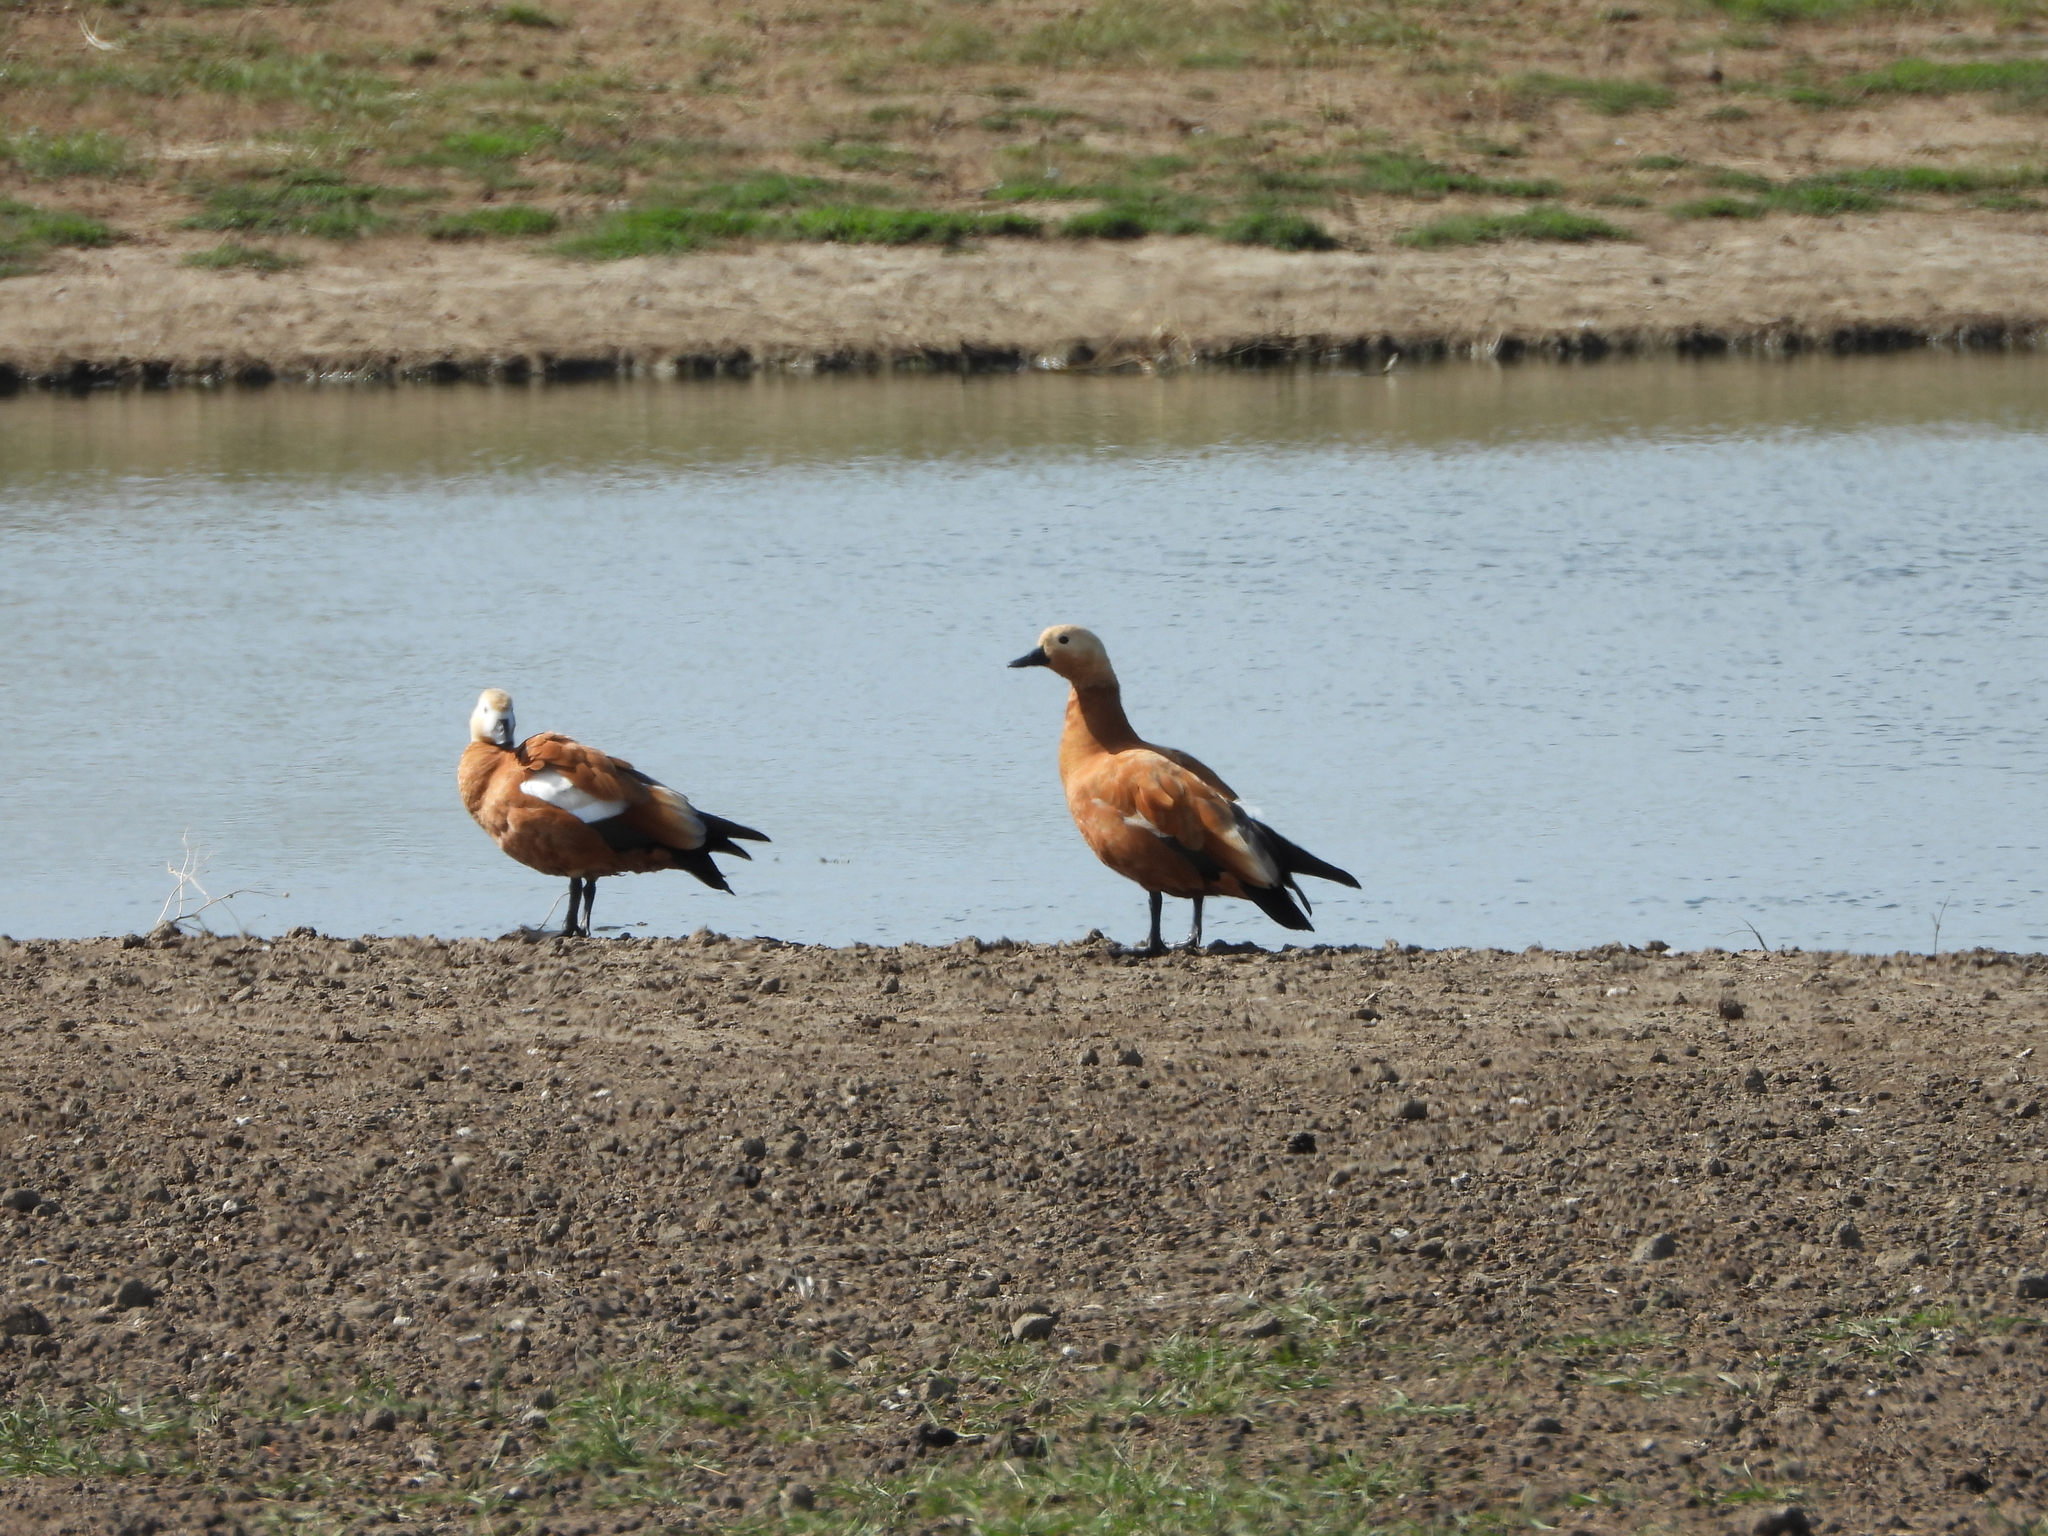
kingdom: Animalia
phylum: Chordata
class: Aves
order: Anseriformes
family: Anatidae
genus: Tadorna
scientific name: Tadorna ferruginea
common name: Ruddy shelduck
